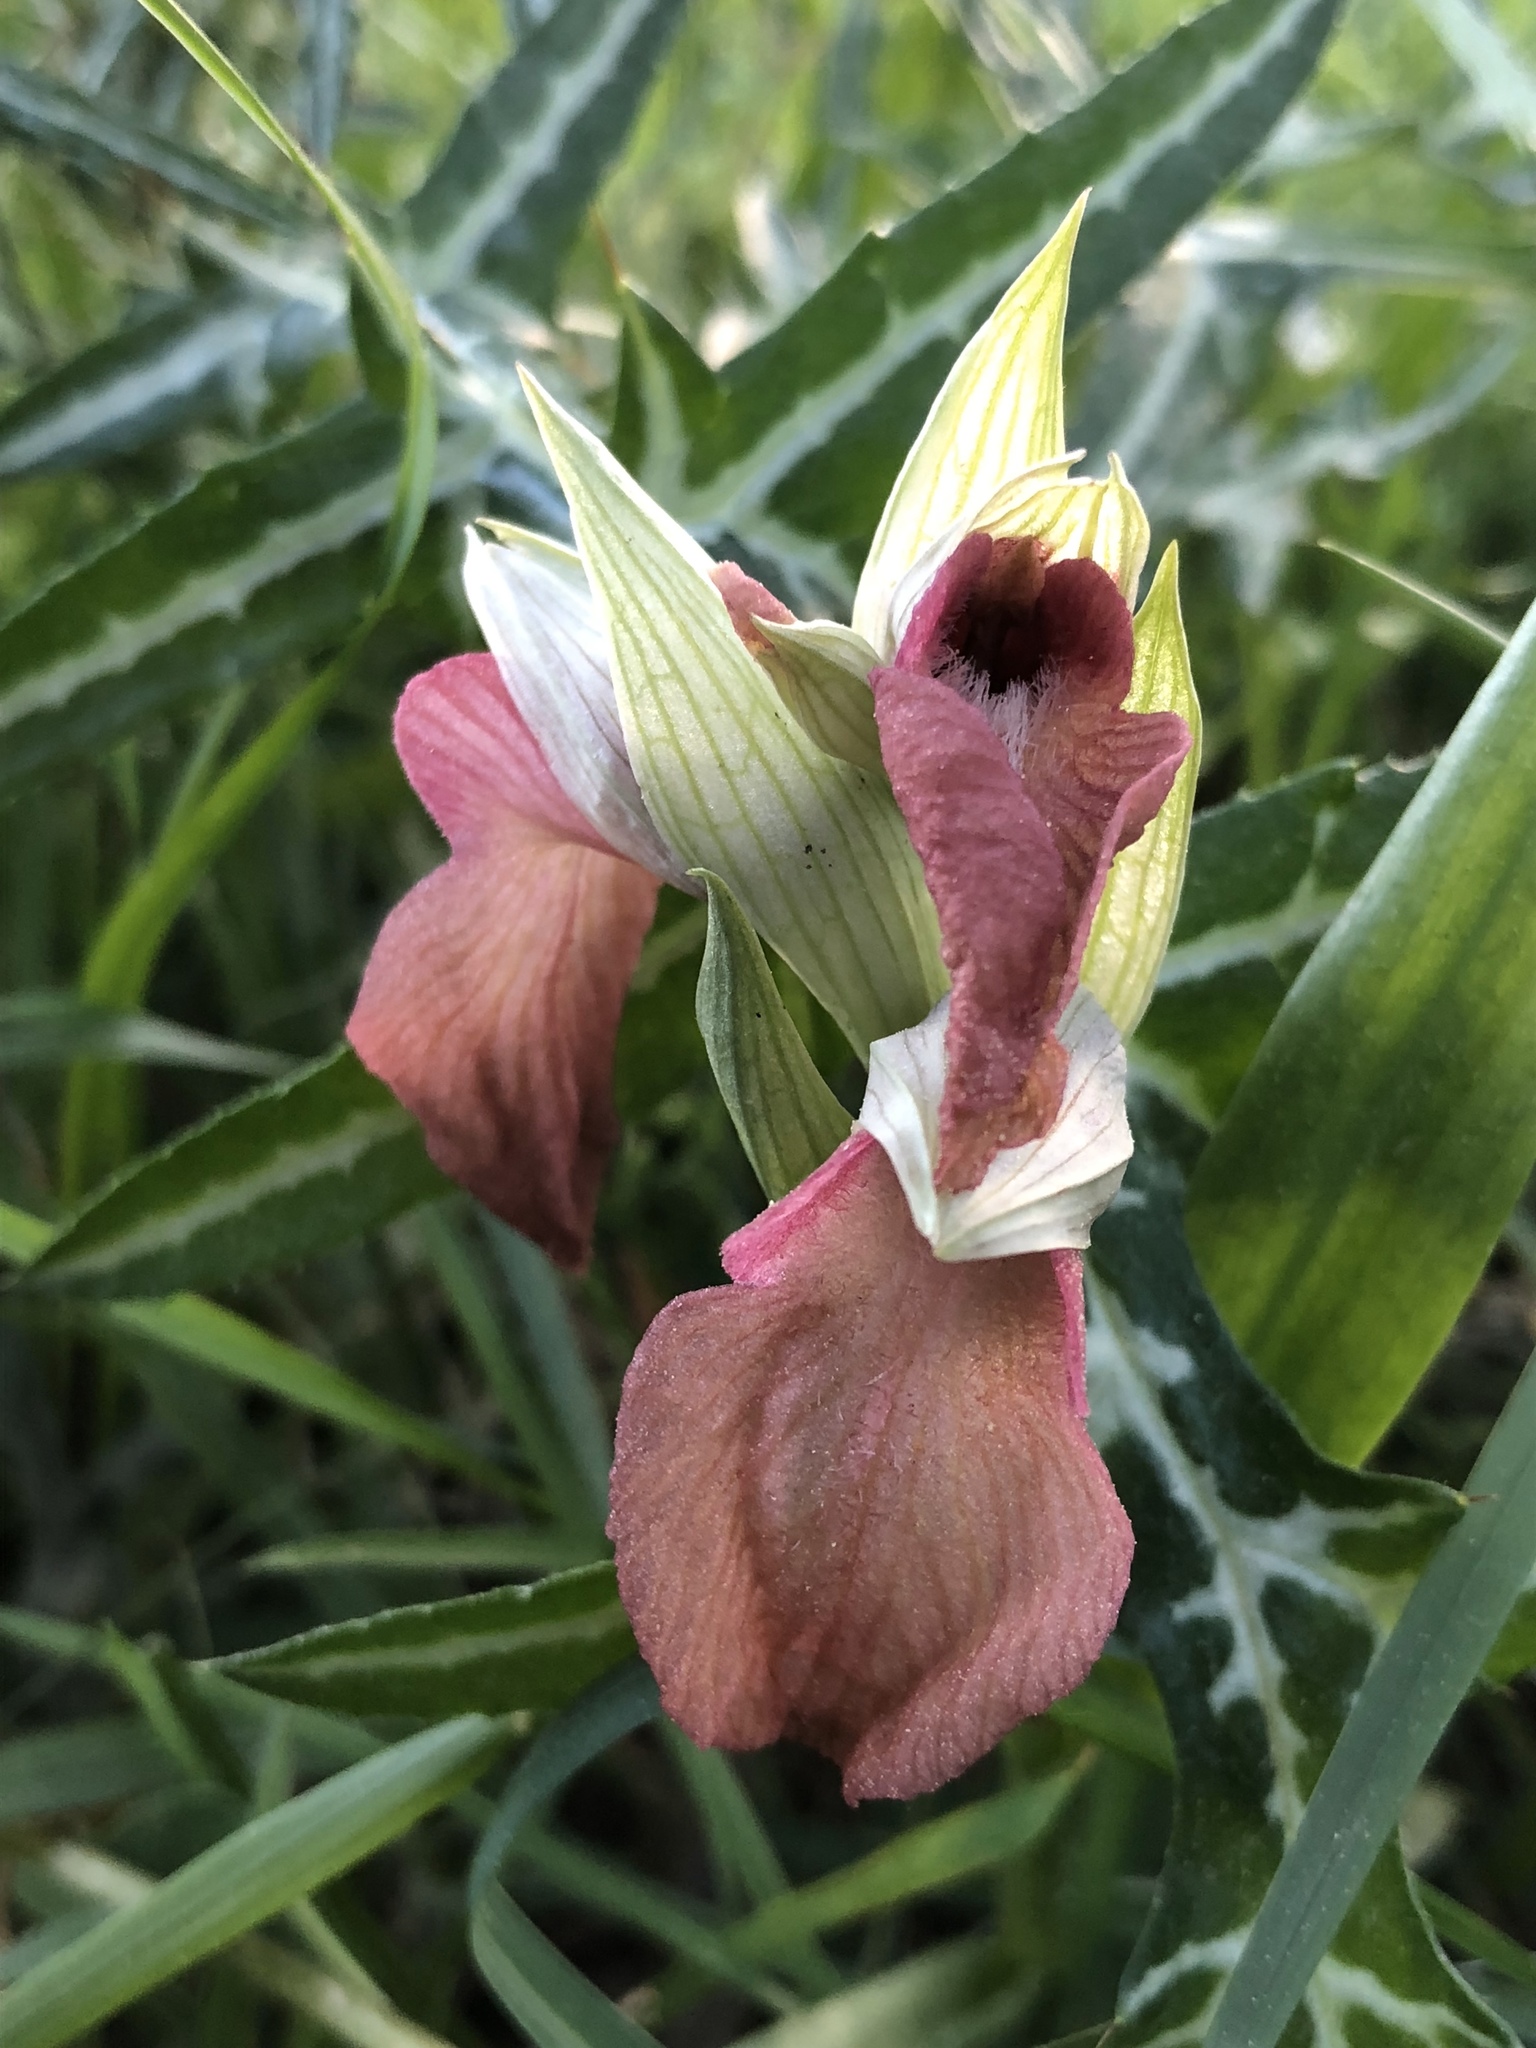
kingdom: Plantae
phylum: Tracheophyta
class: Liliopsida
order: Asparagales
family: Orchidaceae
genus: Serapias
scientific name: Serapias neglecta
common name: Neglected serapias
